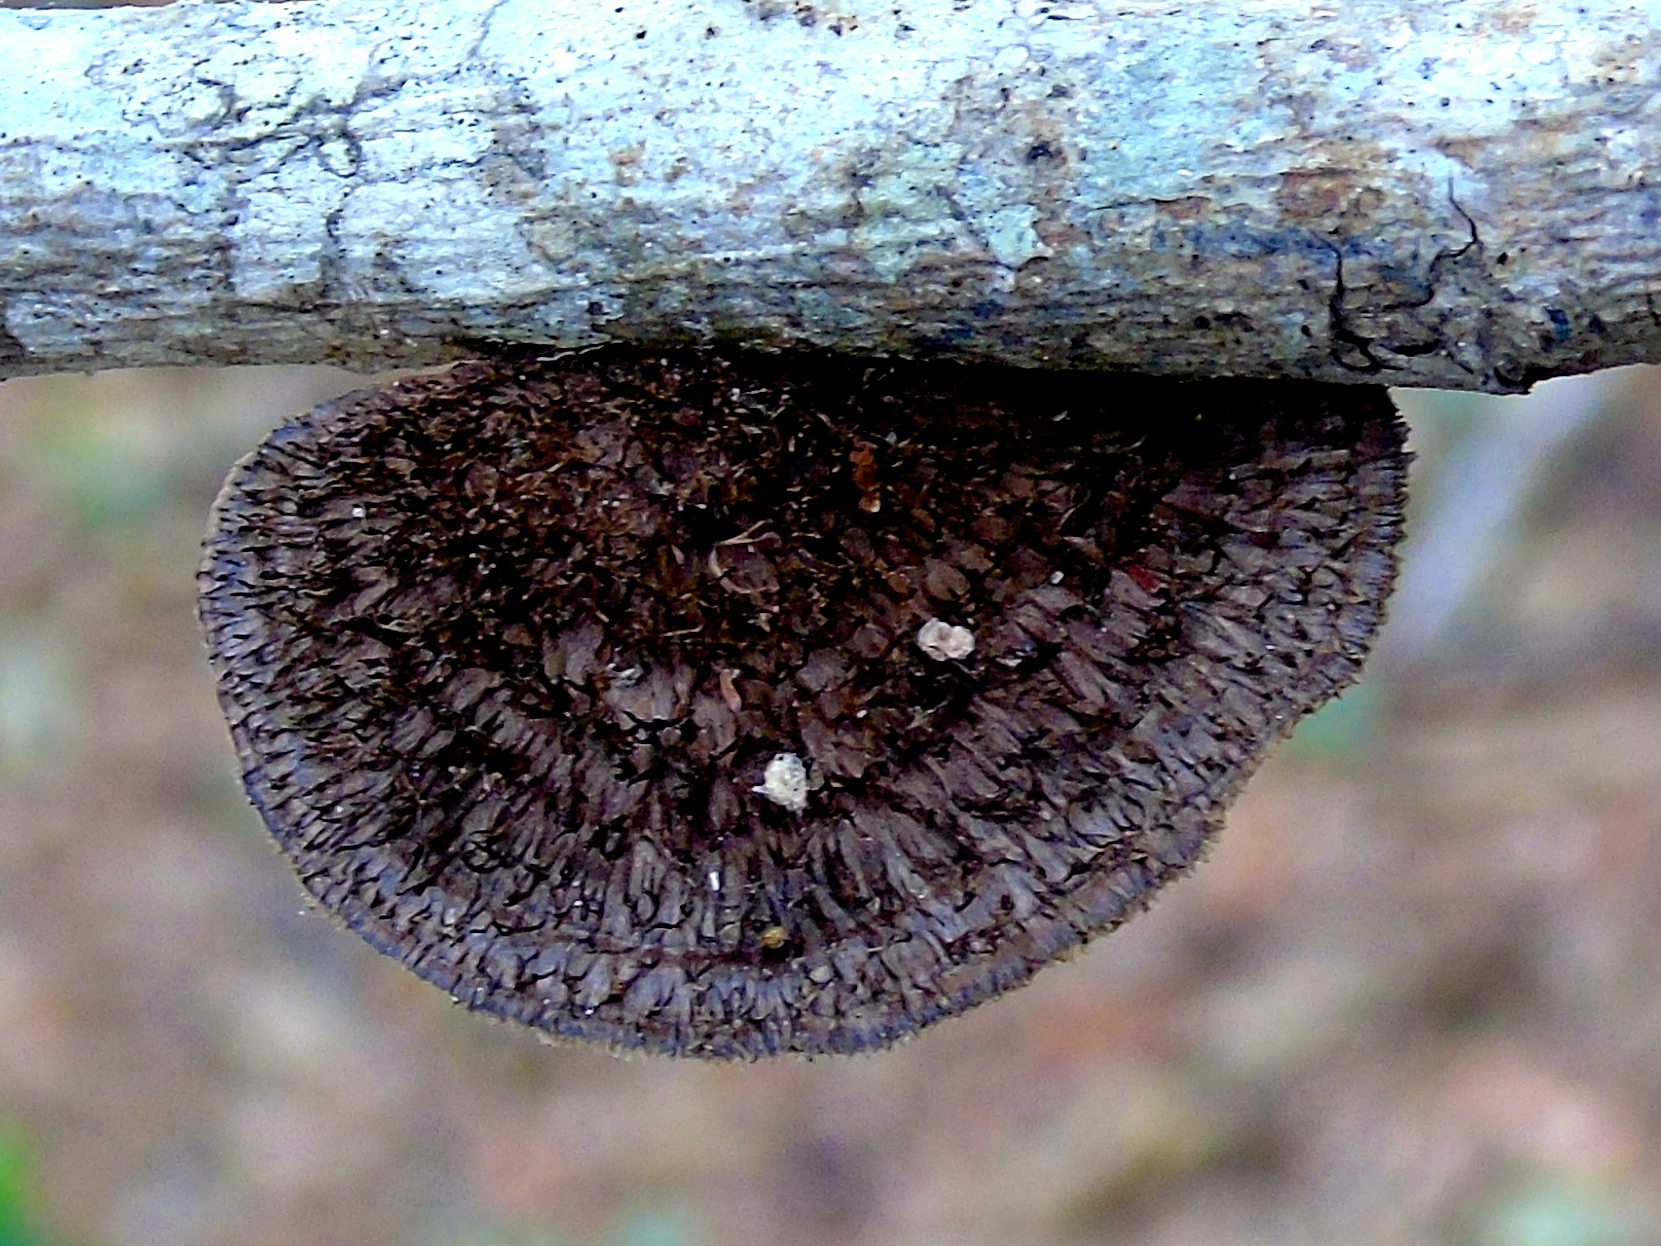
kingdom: Fungi
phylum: Basidiomycota
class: Agaricomycetes
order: Polyporales
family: Cerrenaceae
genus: Cerrena
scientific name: Cerrena hydnoides
